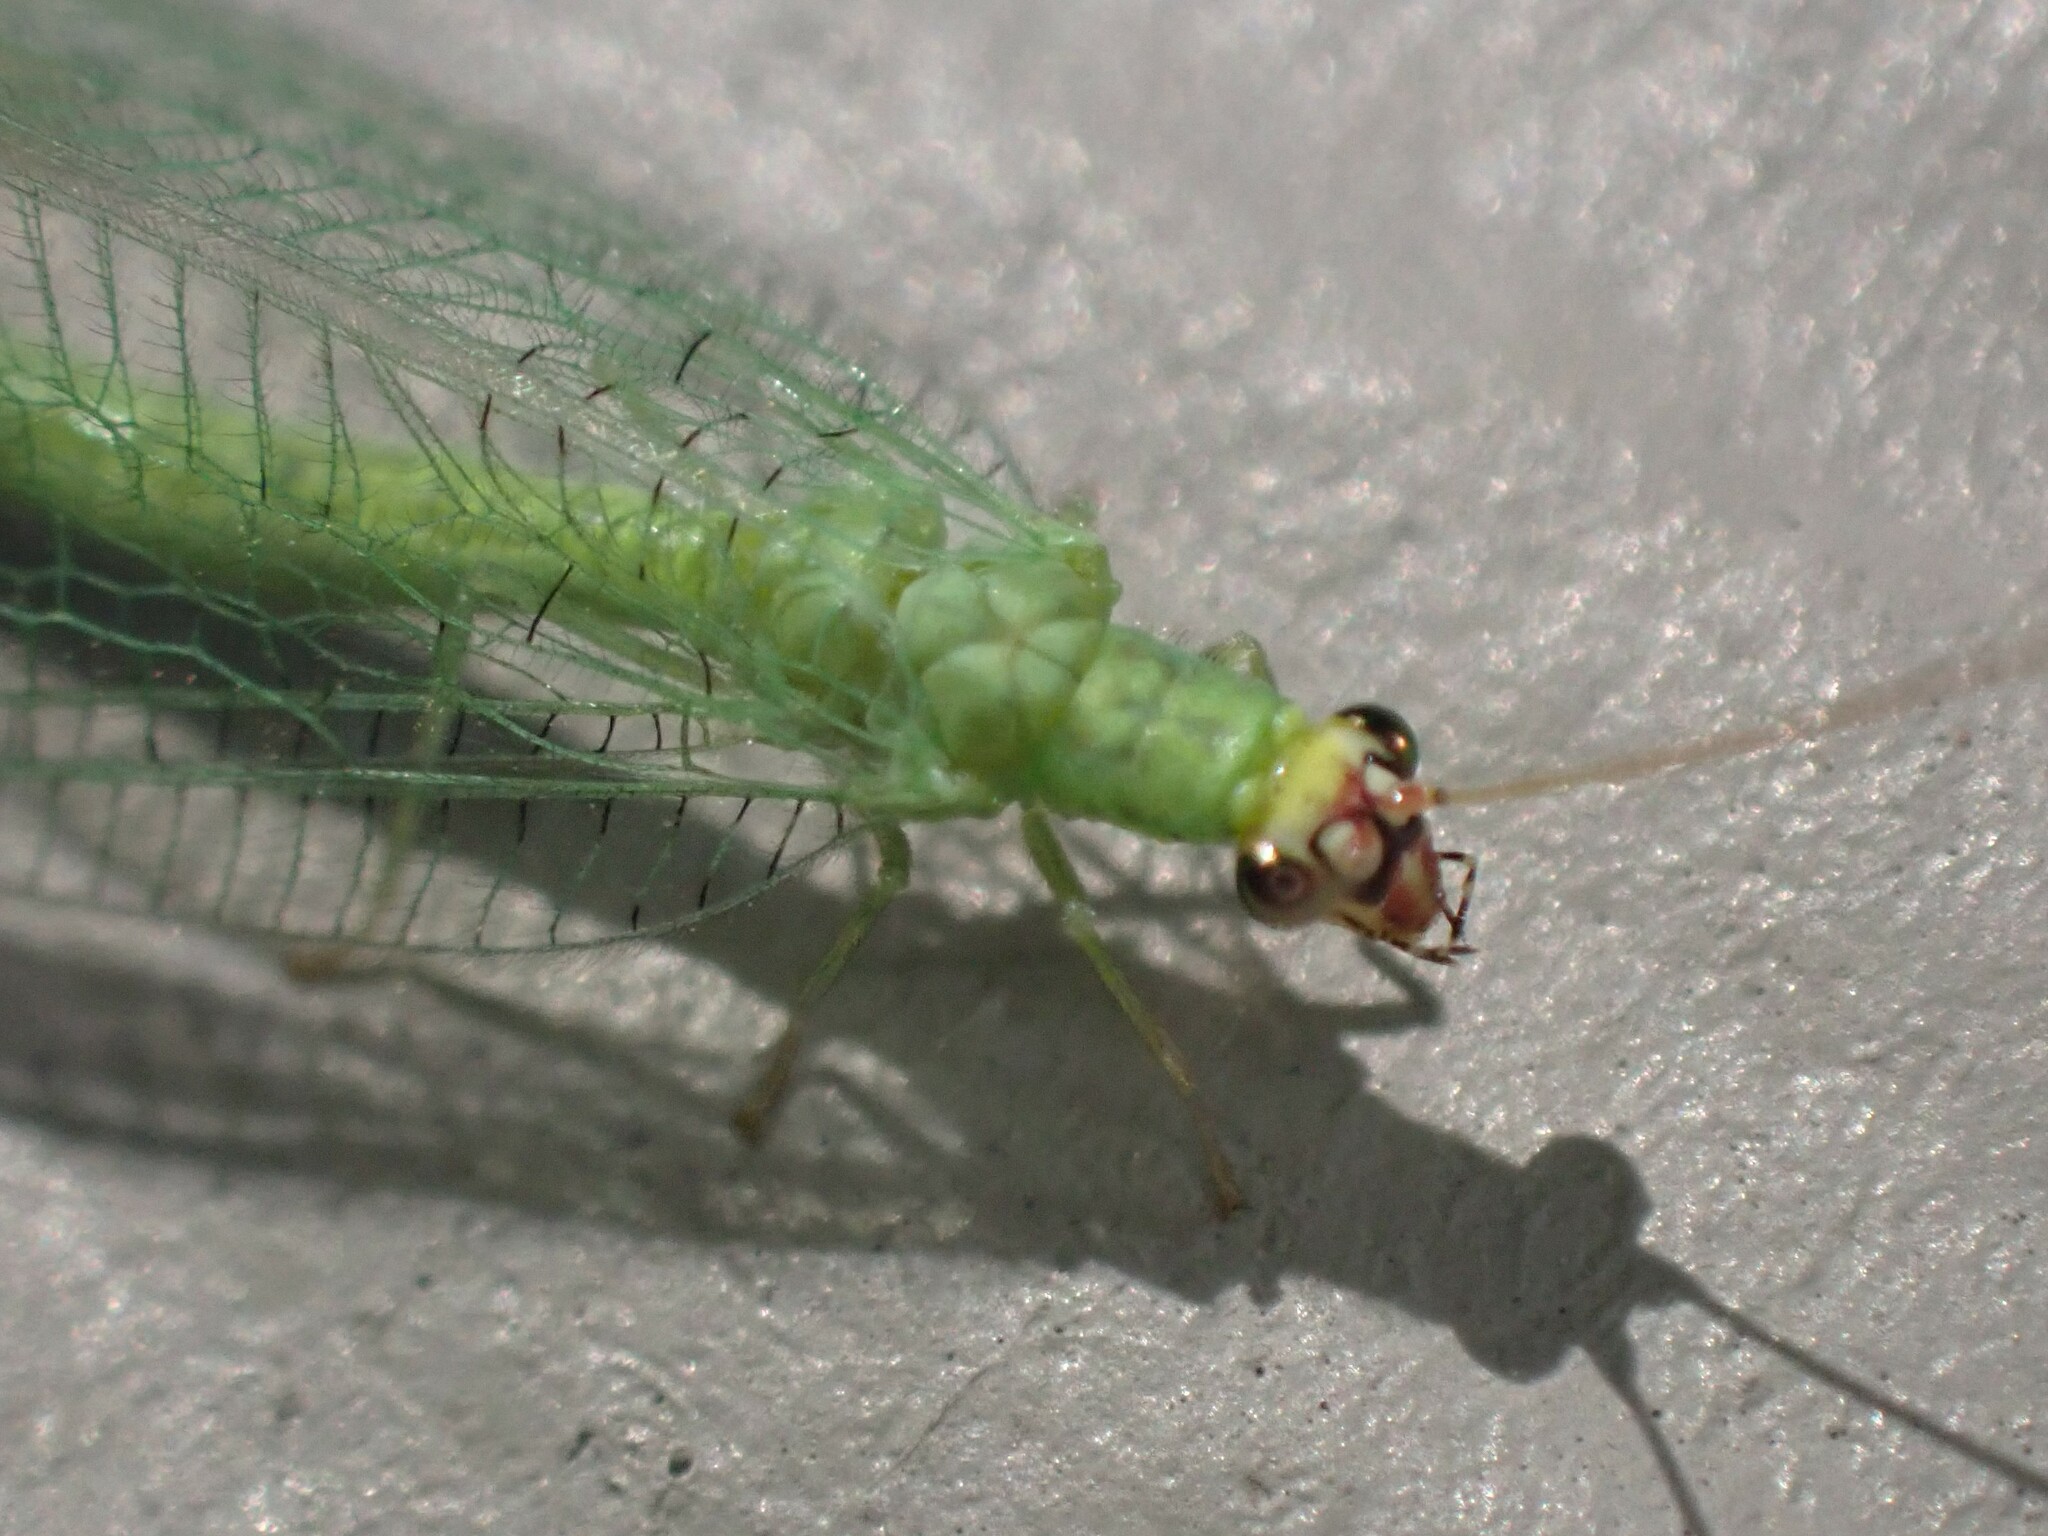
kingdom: Animalia
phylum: Arthropoda
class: Insecta
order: Neuroptera
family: Chrysopidae
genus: Chrysopa
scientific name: Chrysopa oculata
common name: Golden-eyed lacewing
